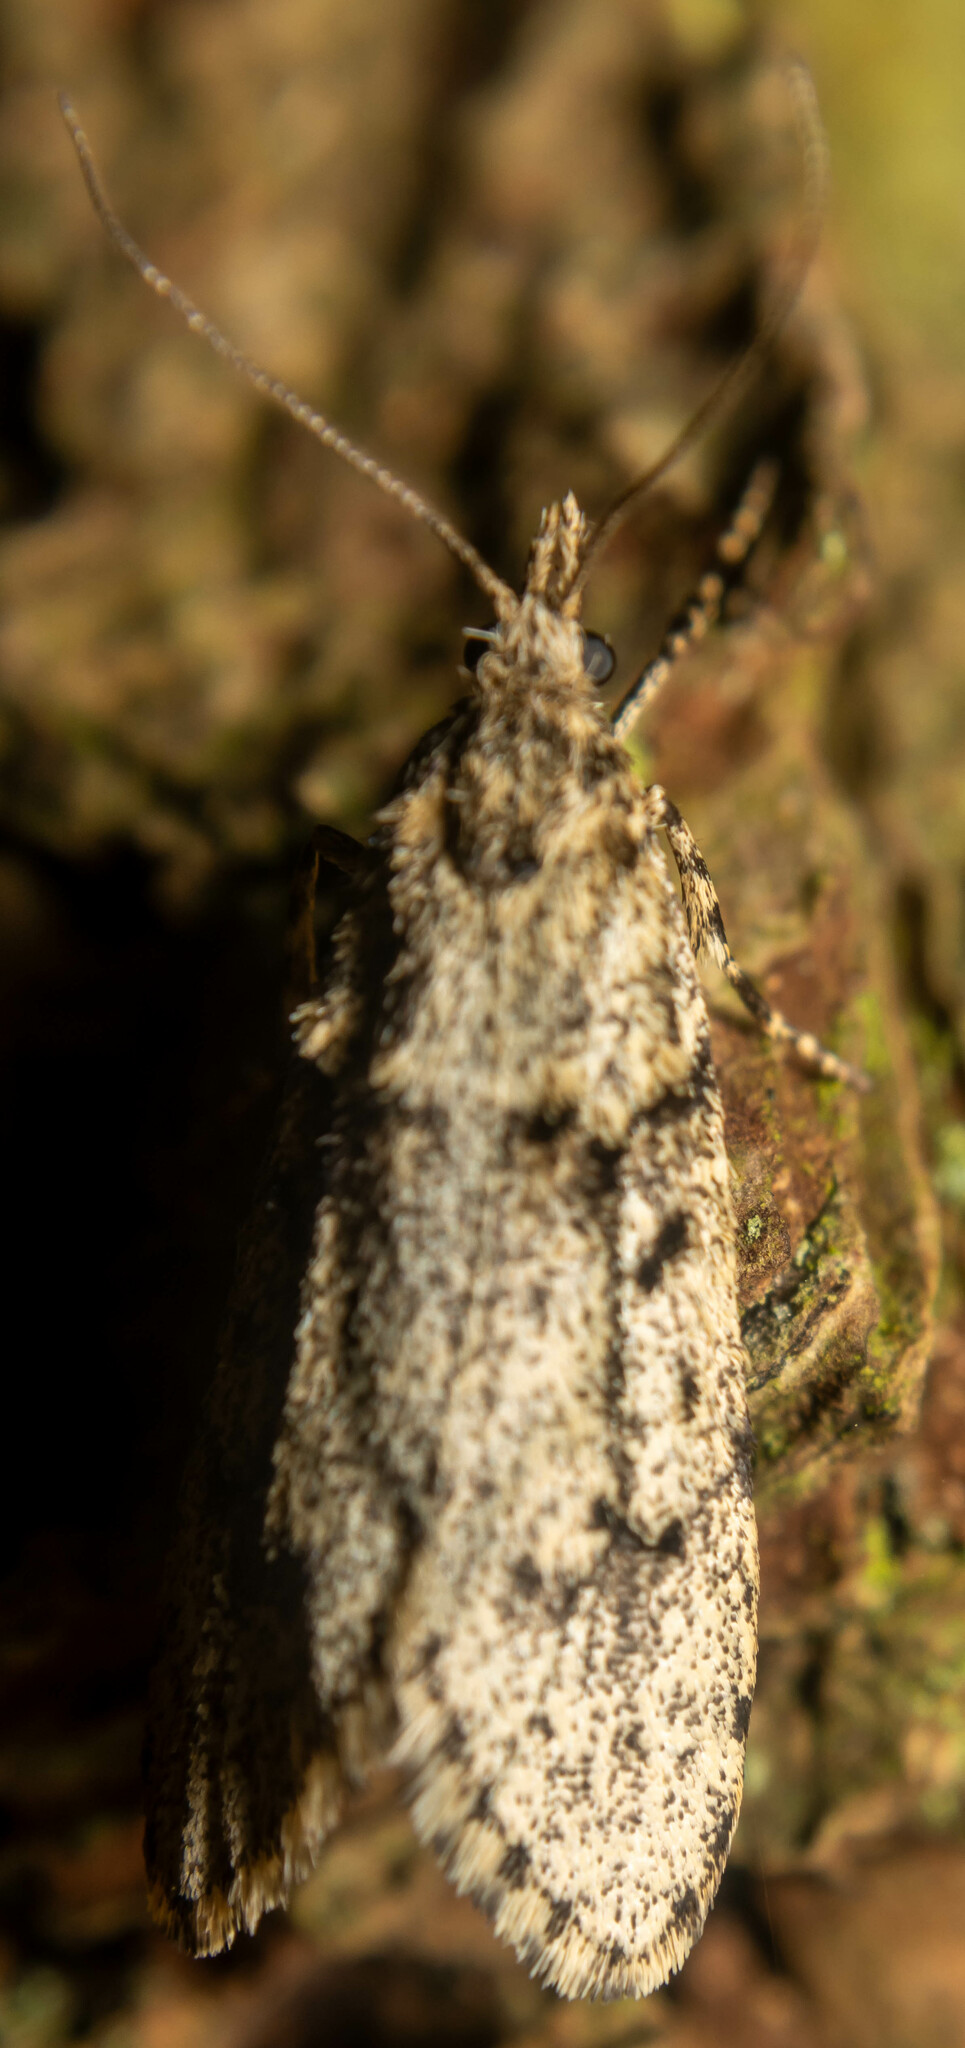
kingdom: Animalia
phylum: Arthropoda
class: Insecta
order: Lepidoptera
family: Lypusidae
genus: Diurnea
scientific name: Diurnea fagella
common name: March tubic
